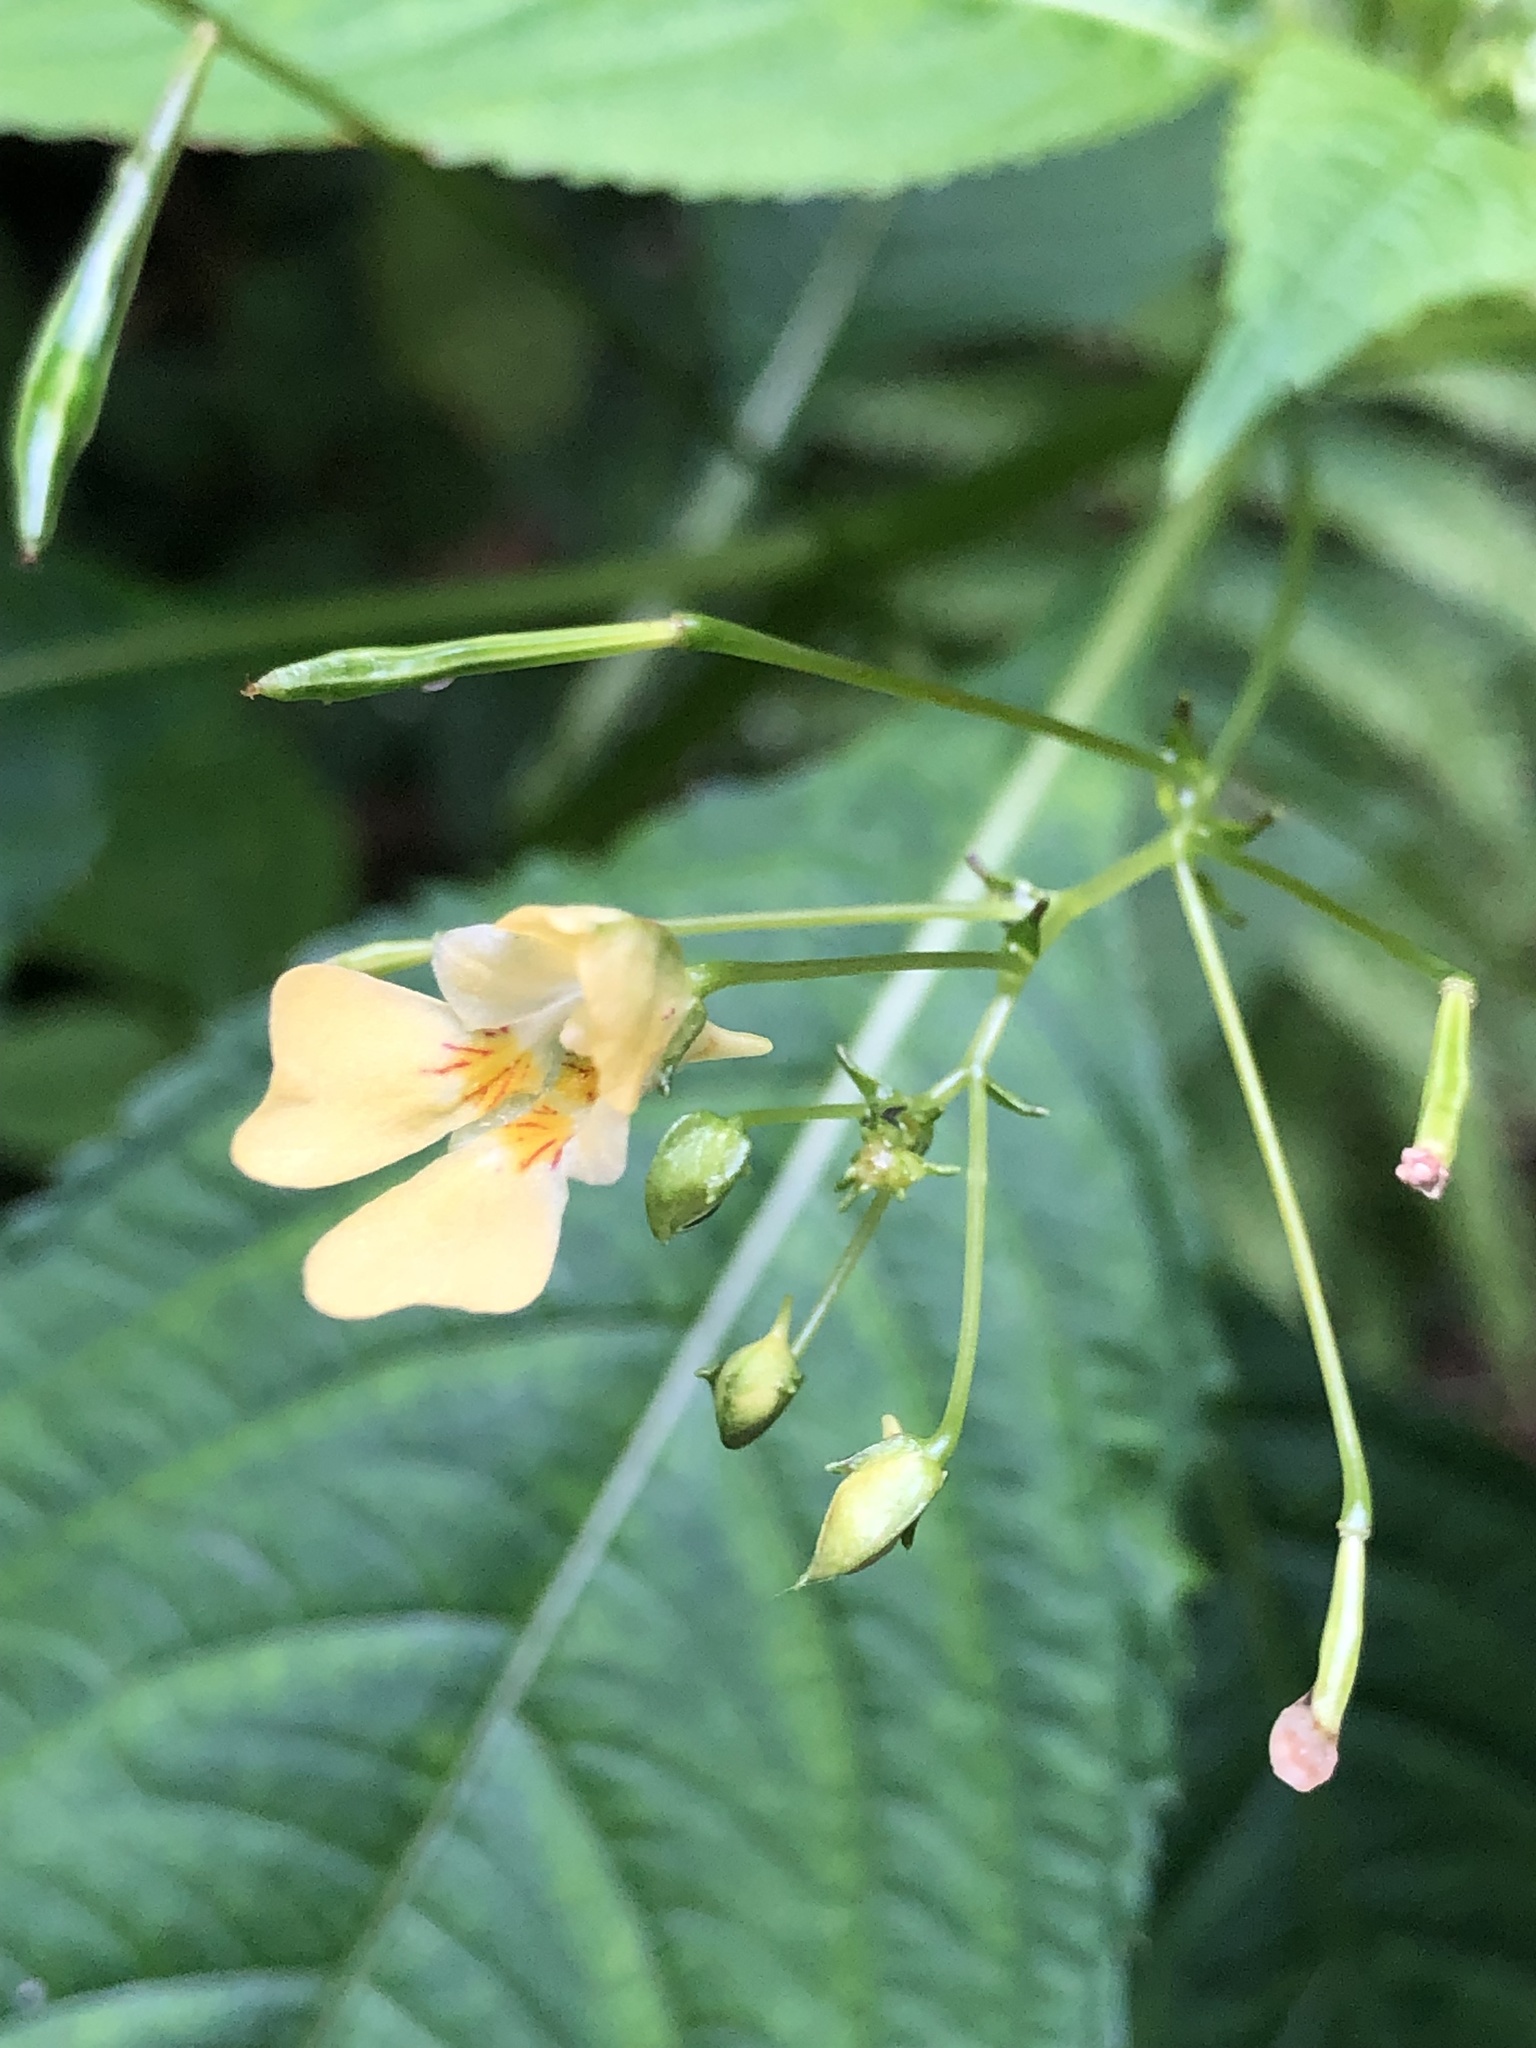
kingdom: Plantae
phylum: Tracheophyta
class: Magnoliopsida
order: Ericales
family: Balsaminaceae
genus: Impatiens
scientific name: Impatiens parviflora
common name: Small balsam
